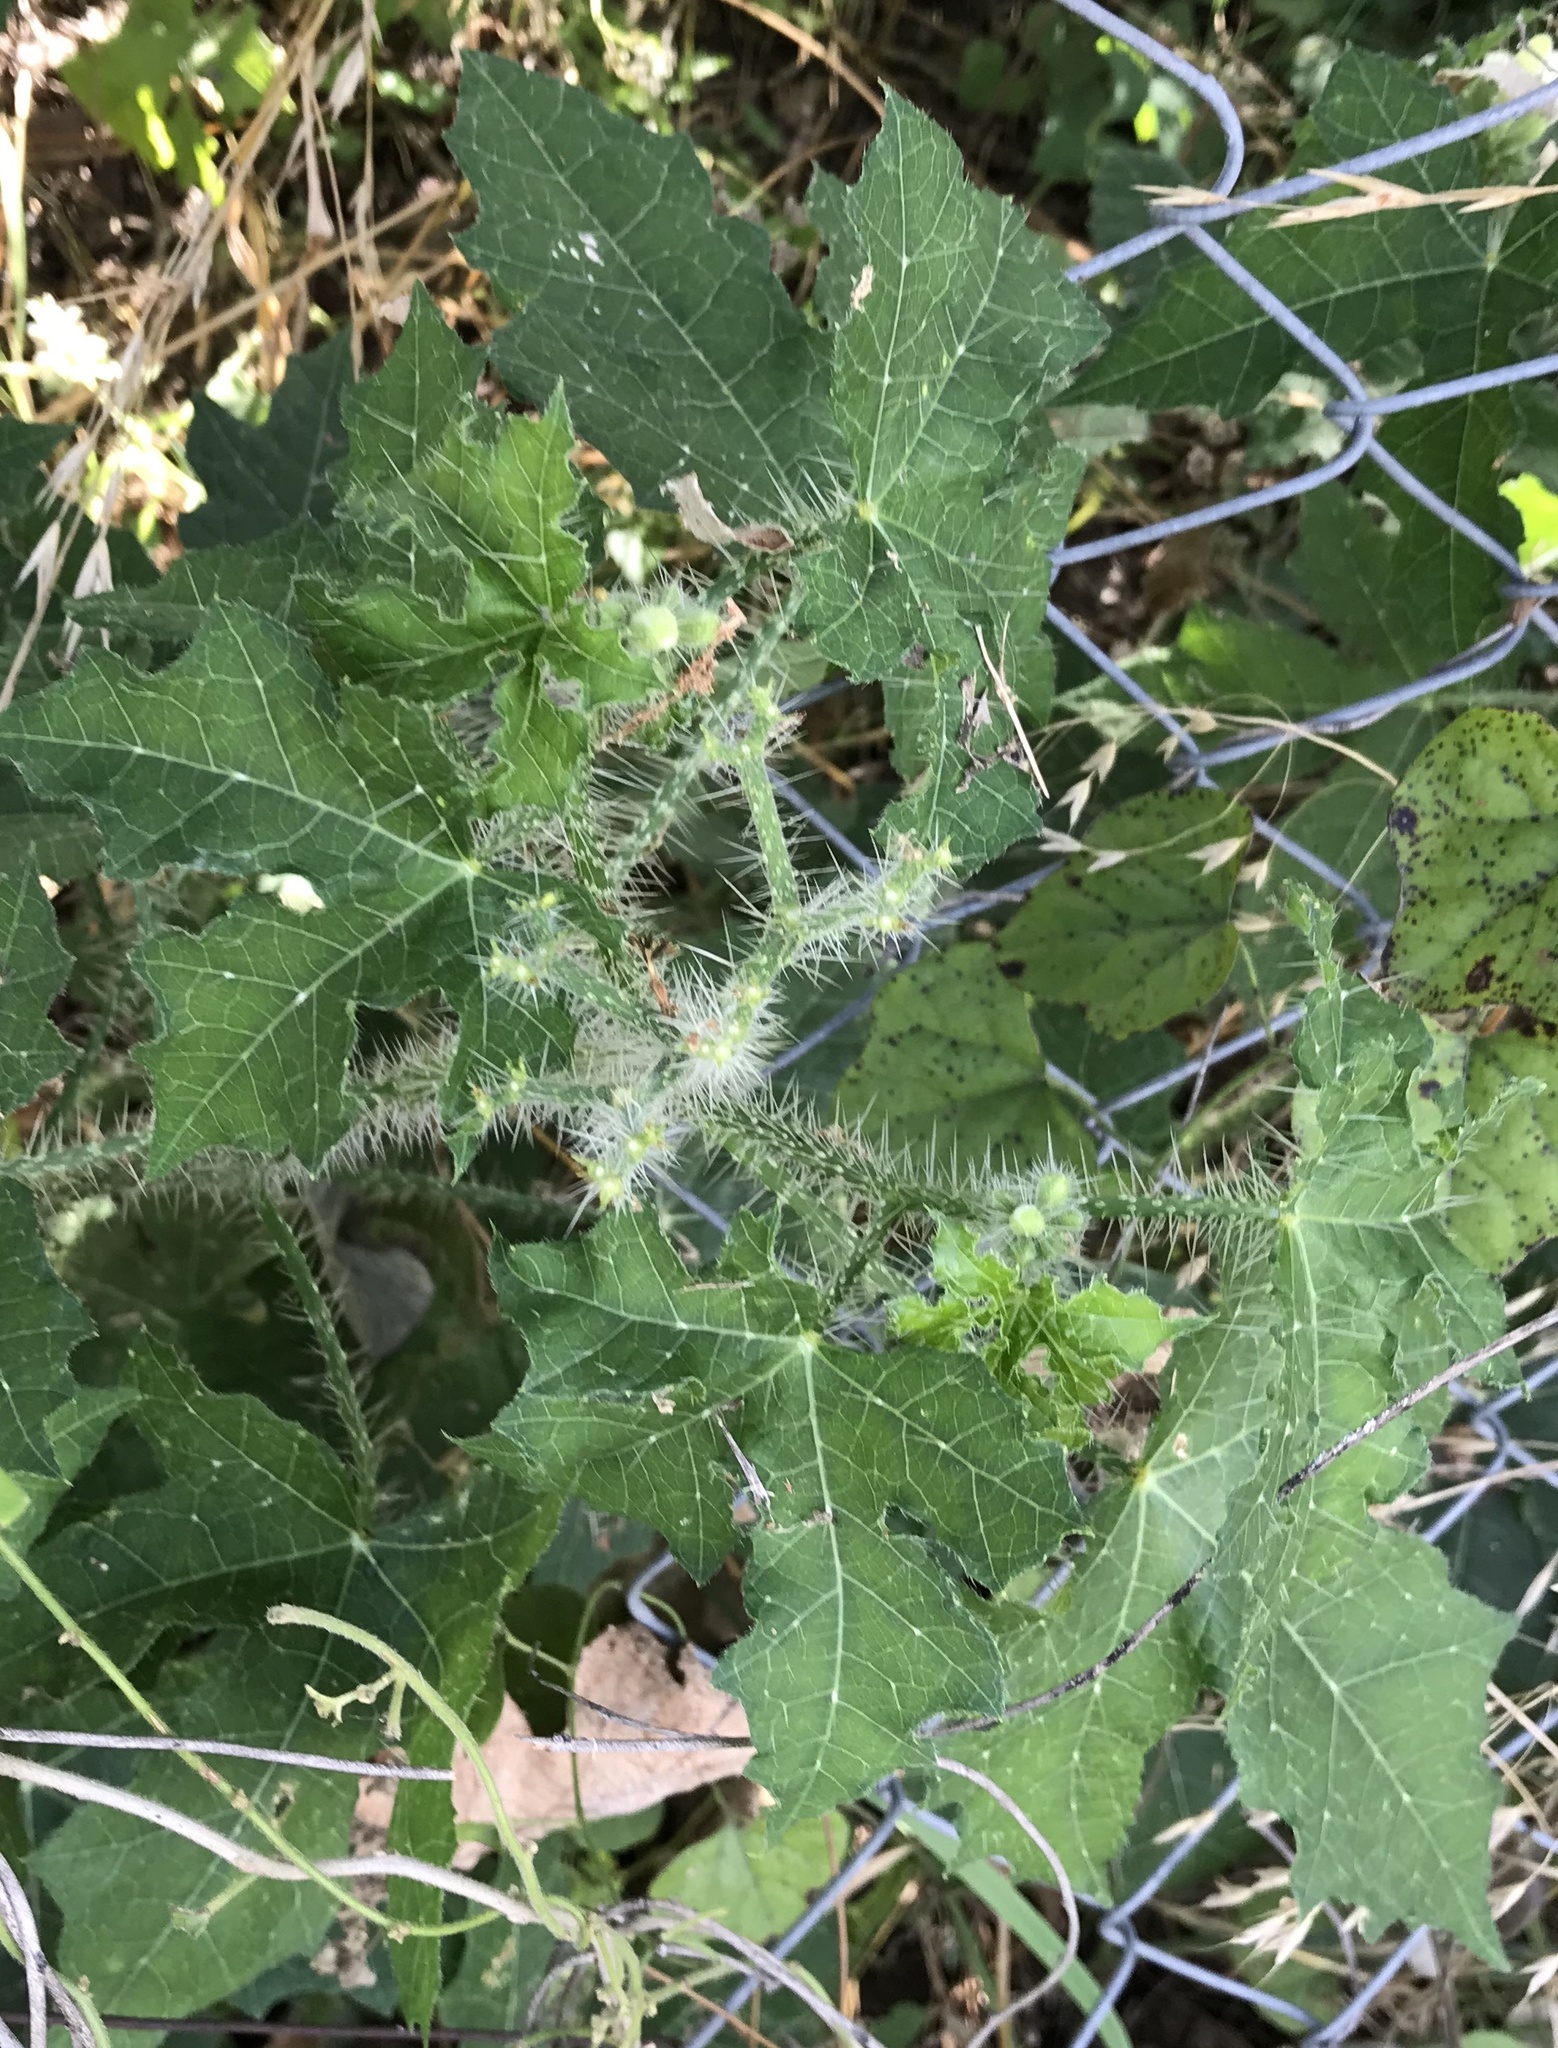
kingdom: Plantae
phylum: Tracheophyta
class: Magnoliopsida
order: Malpighiales
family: Euphorbiaceae
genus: Cnidoscolus
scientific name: Cnidoscolus texanus
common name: Texas bull-nettle
